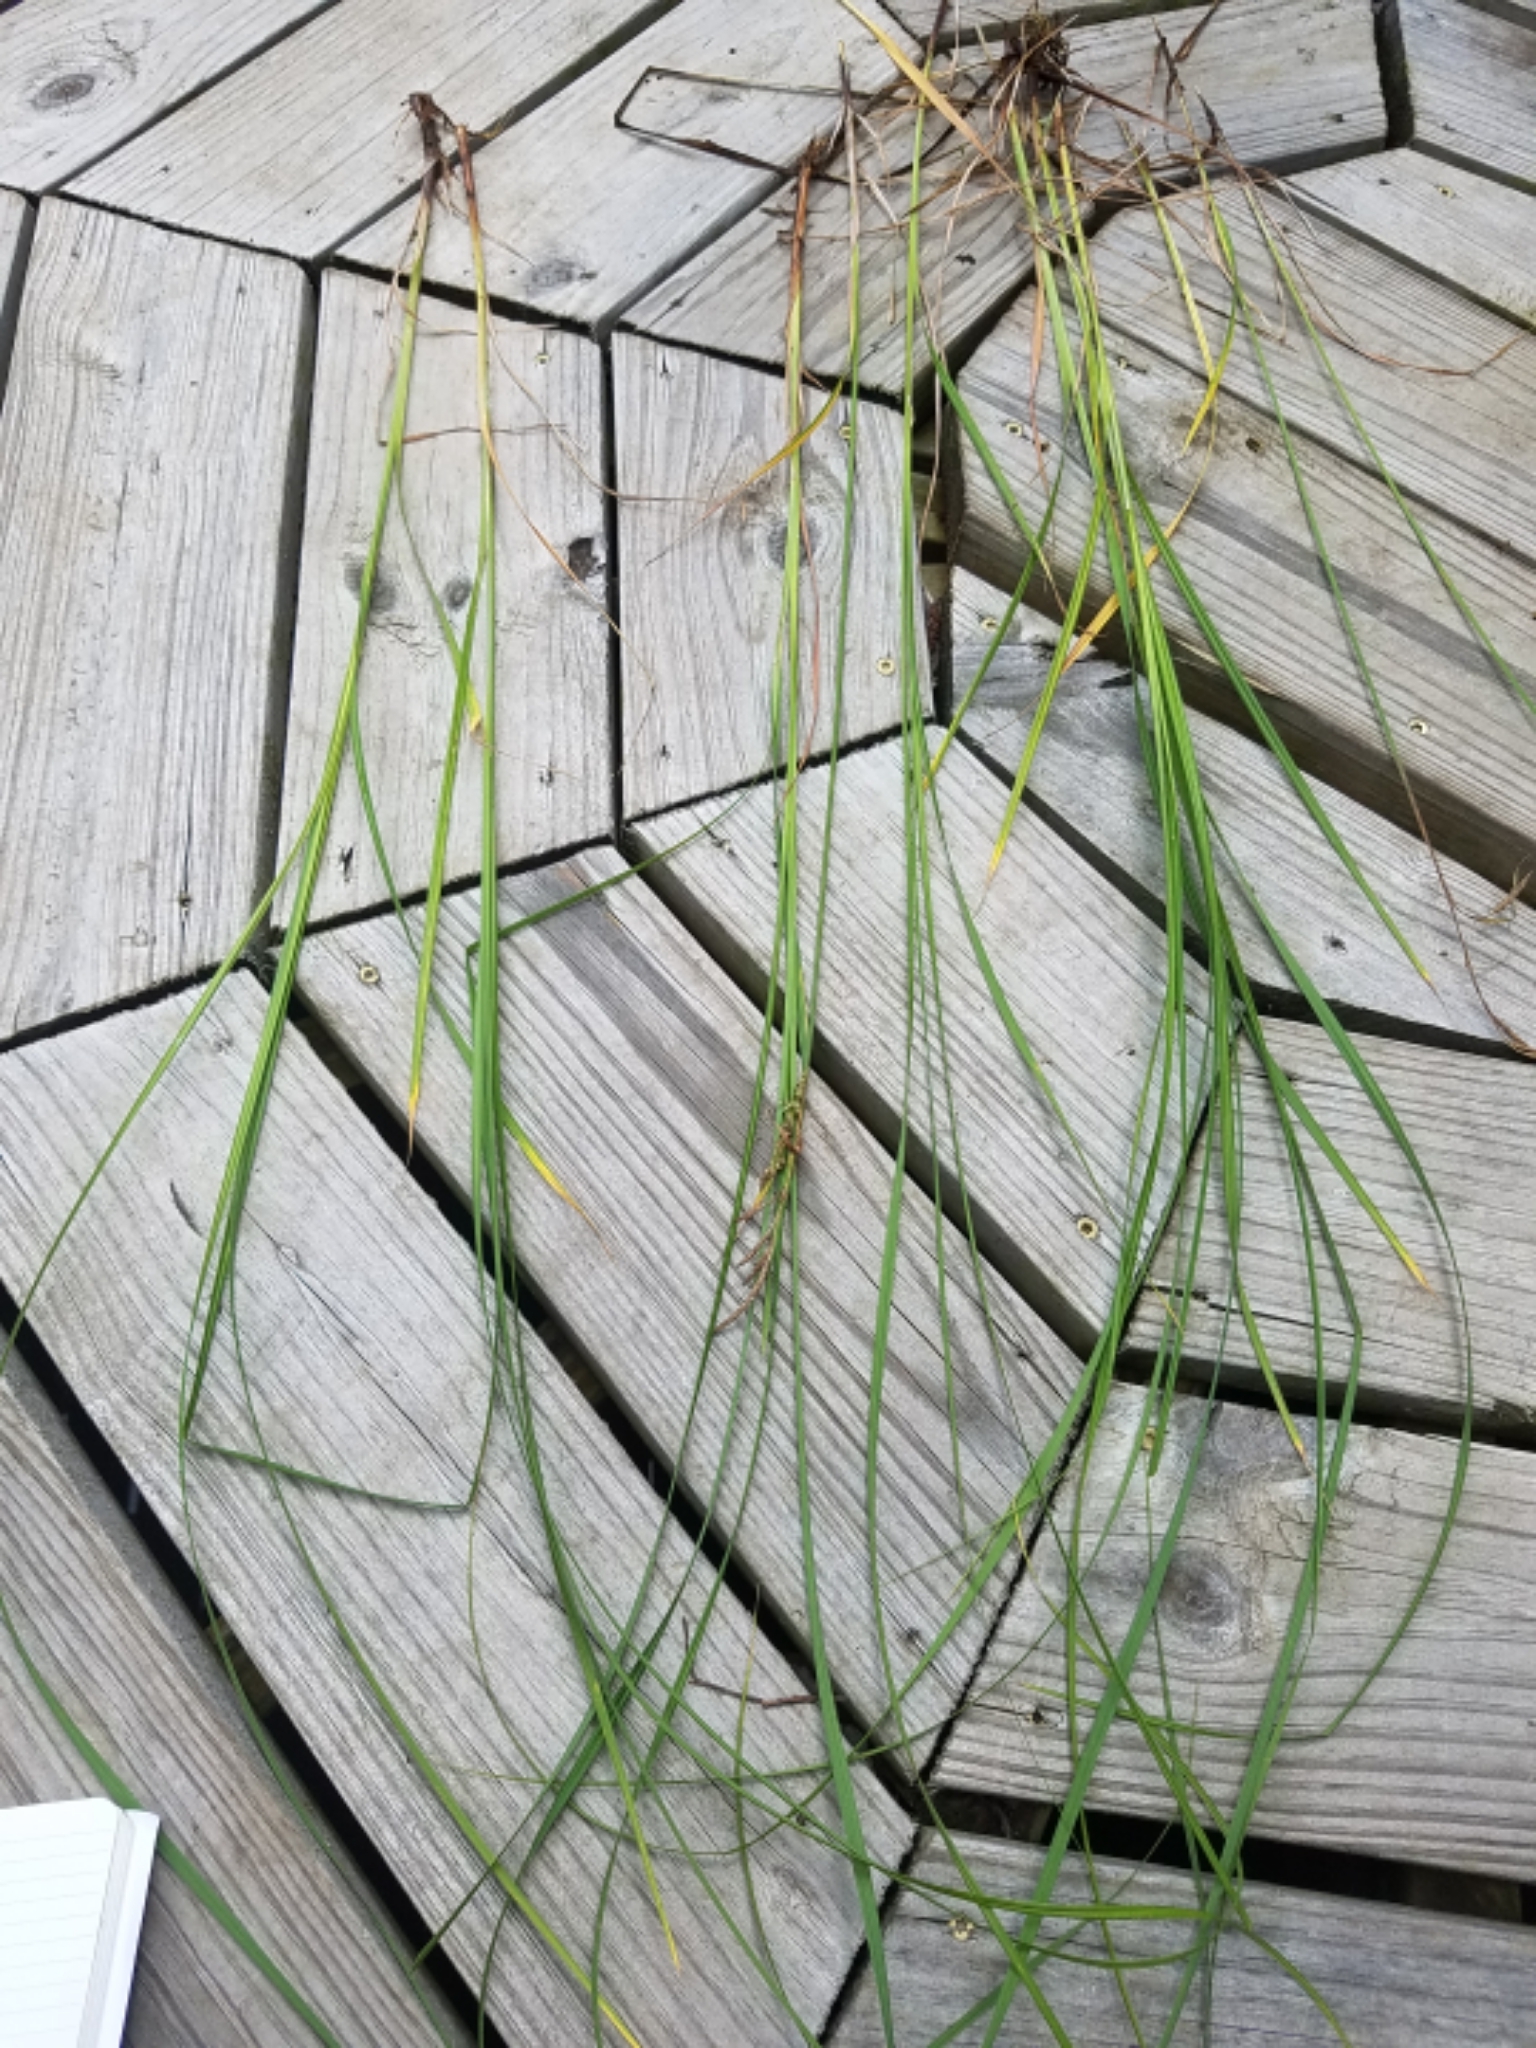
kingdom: Plantae
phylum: Tracheophyta
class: Liliopsida
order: Poales
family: Cyperaceae
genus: Carex
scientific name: Carex emoryi
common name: Emory's sedge
